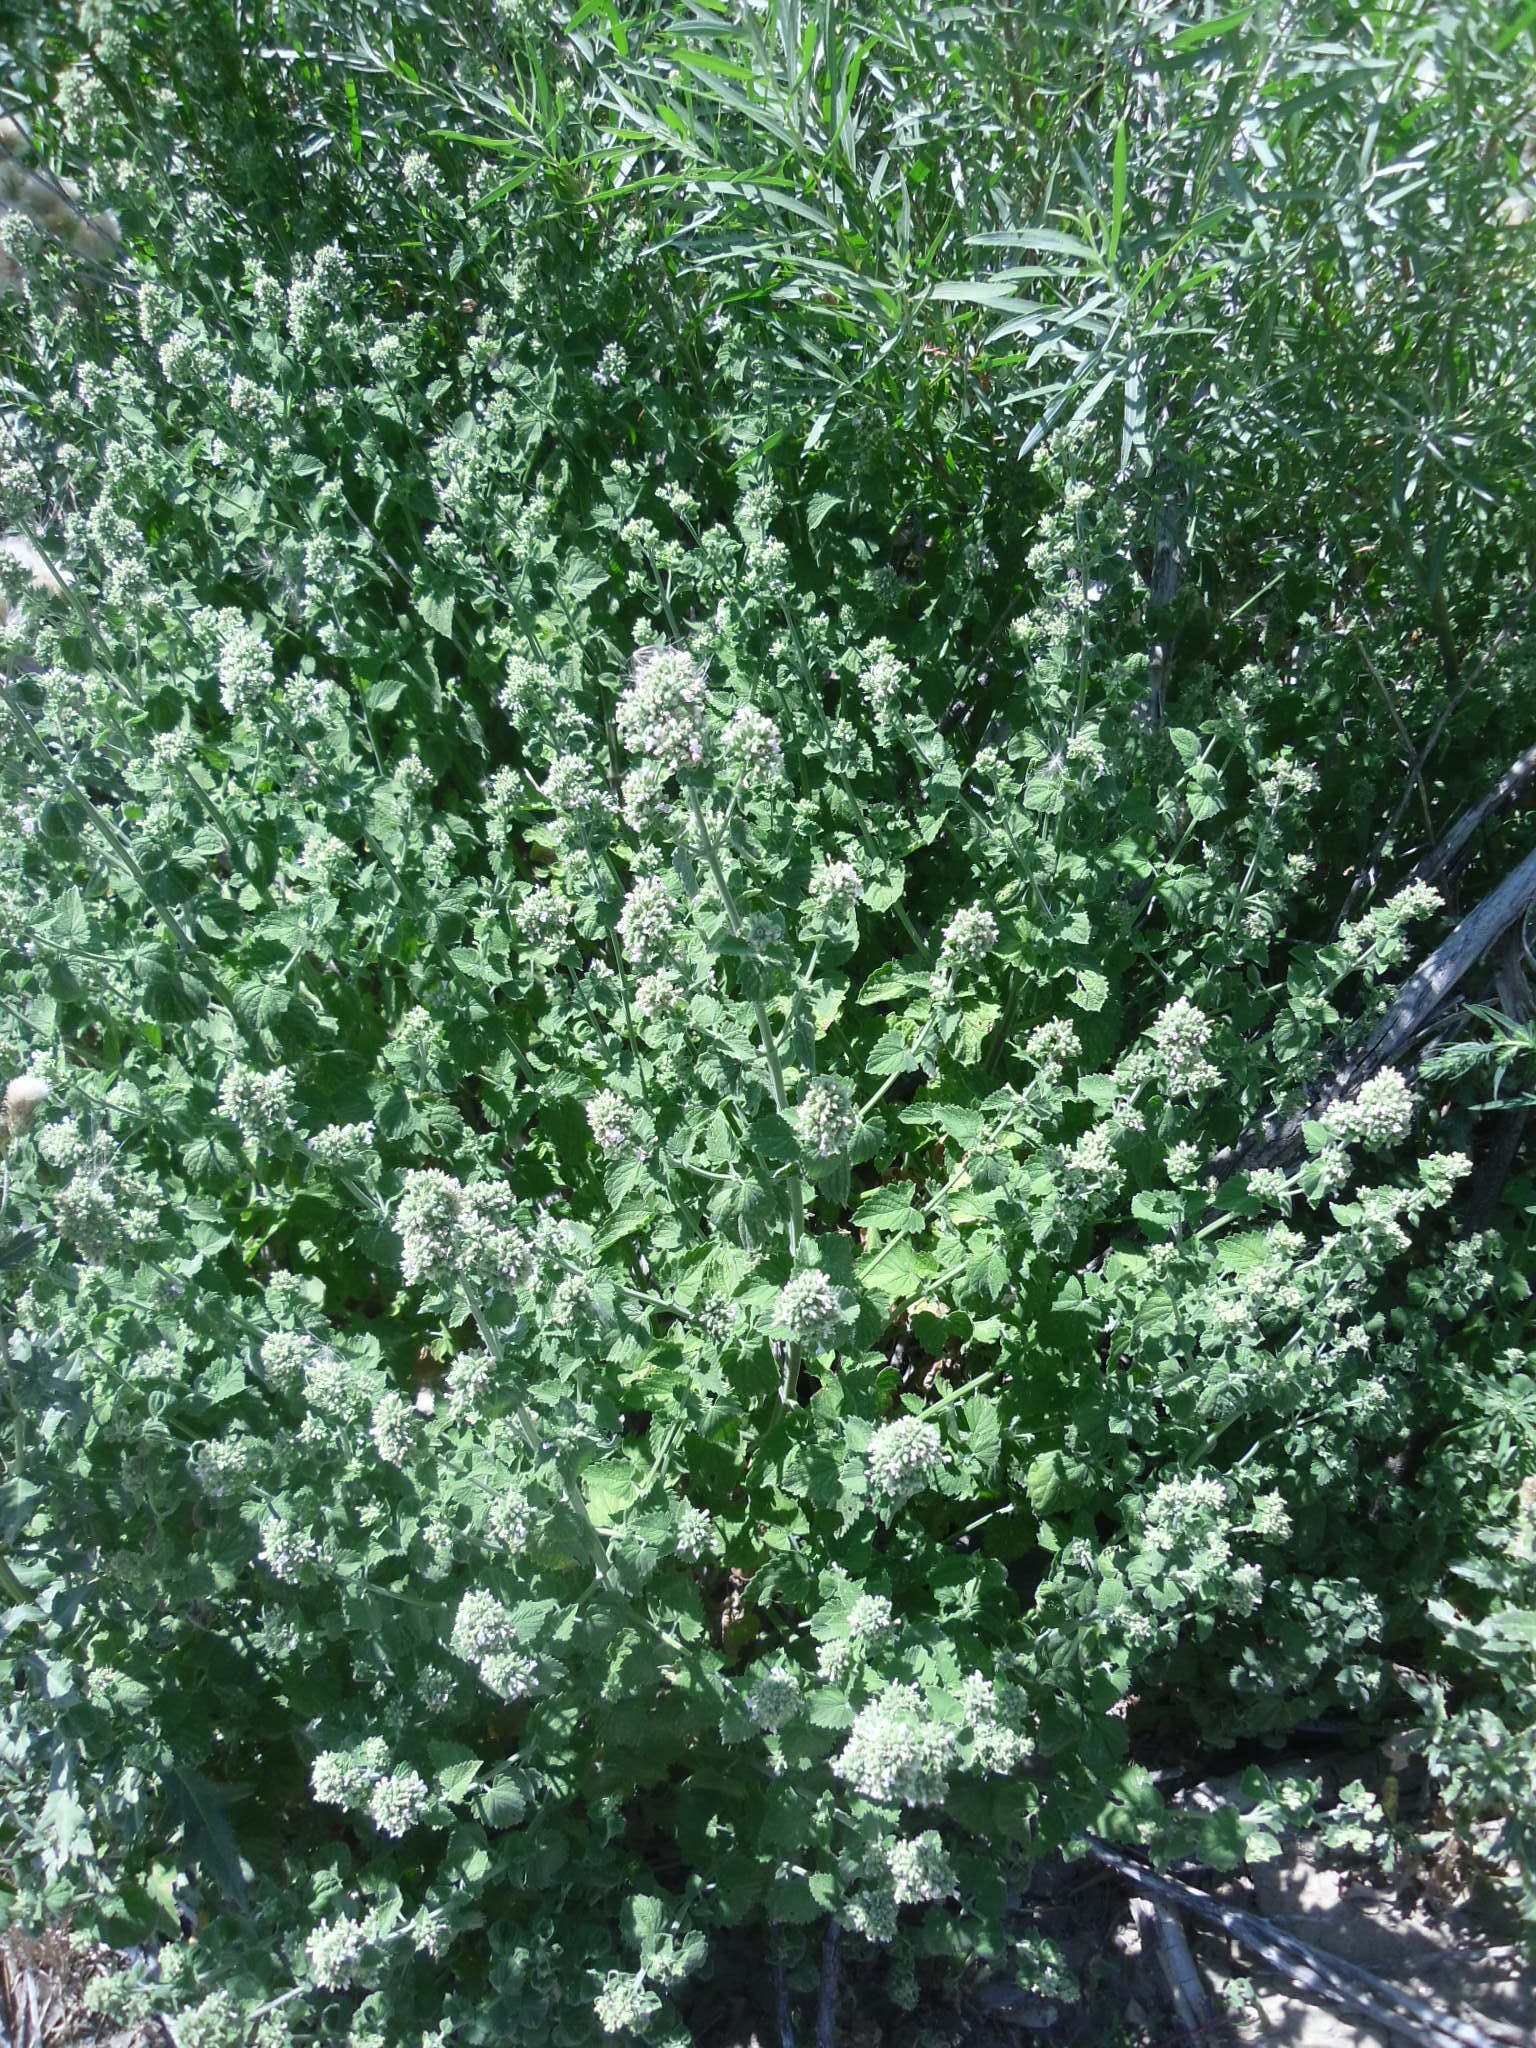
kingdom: Plantae
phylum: Tracheophyta
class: Magnoliopsida
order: Lamiales
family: Lamiaceae
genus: Nepeta
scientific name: Nepeta cataria
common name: Catnip
